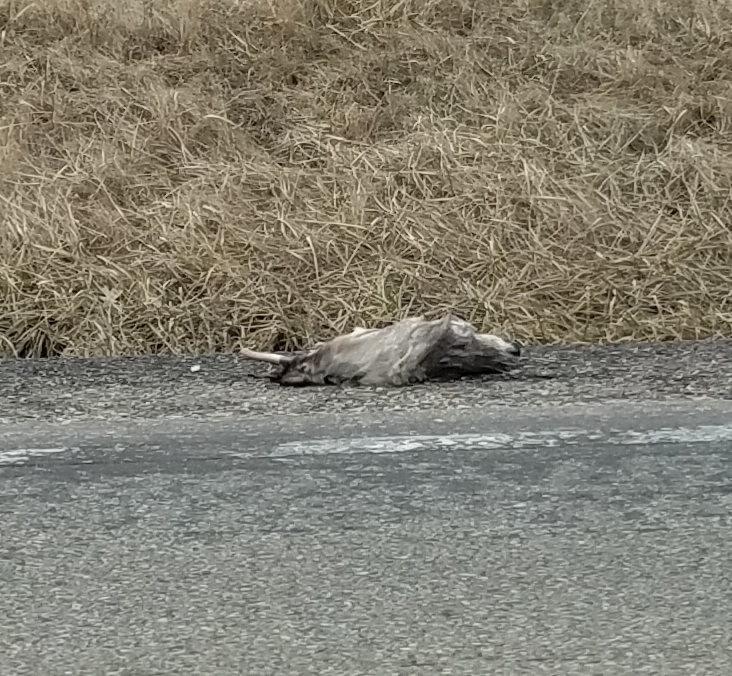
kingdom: Animalia
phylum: Chordata
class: Mammalia
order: Artiodactyla
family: Cervidae
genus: Odocoileus
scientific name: Odocoileus virginianus
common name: White-tailed deer
